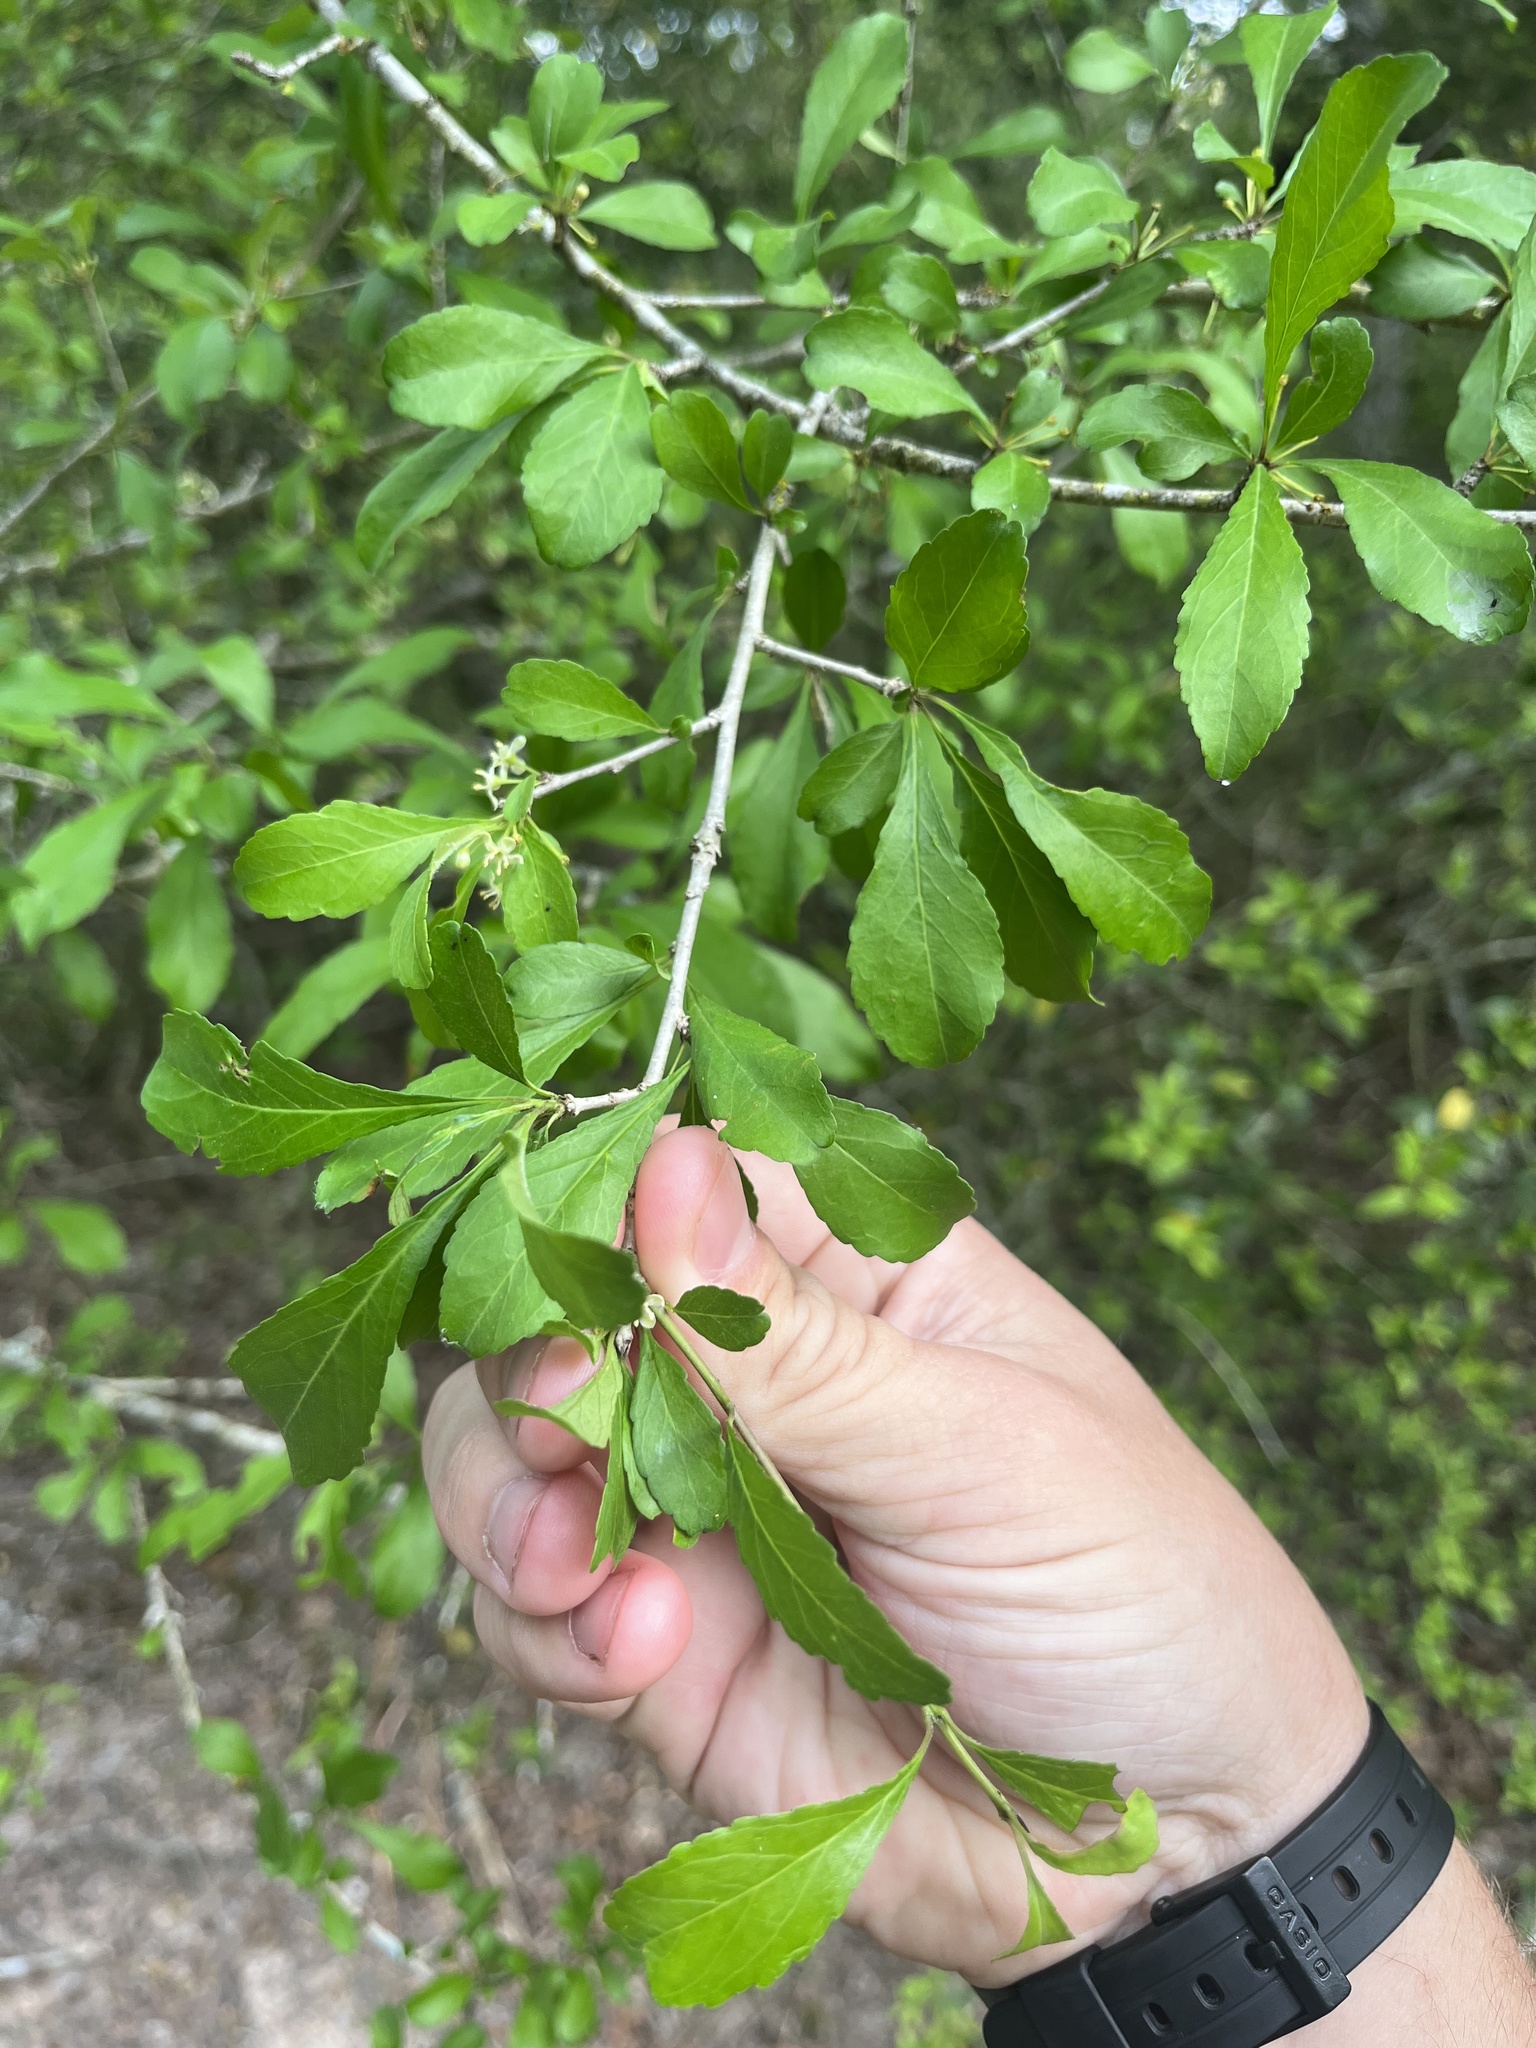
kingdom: Plantae
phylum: Tracheophyta
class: Magnoliopsida
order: Aquifoliales
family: Aquifoliaceae
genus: Ilex
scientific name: Ilex decidua
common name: Possum-haw
